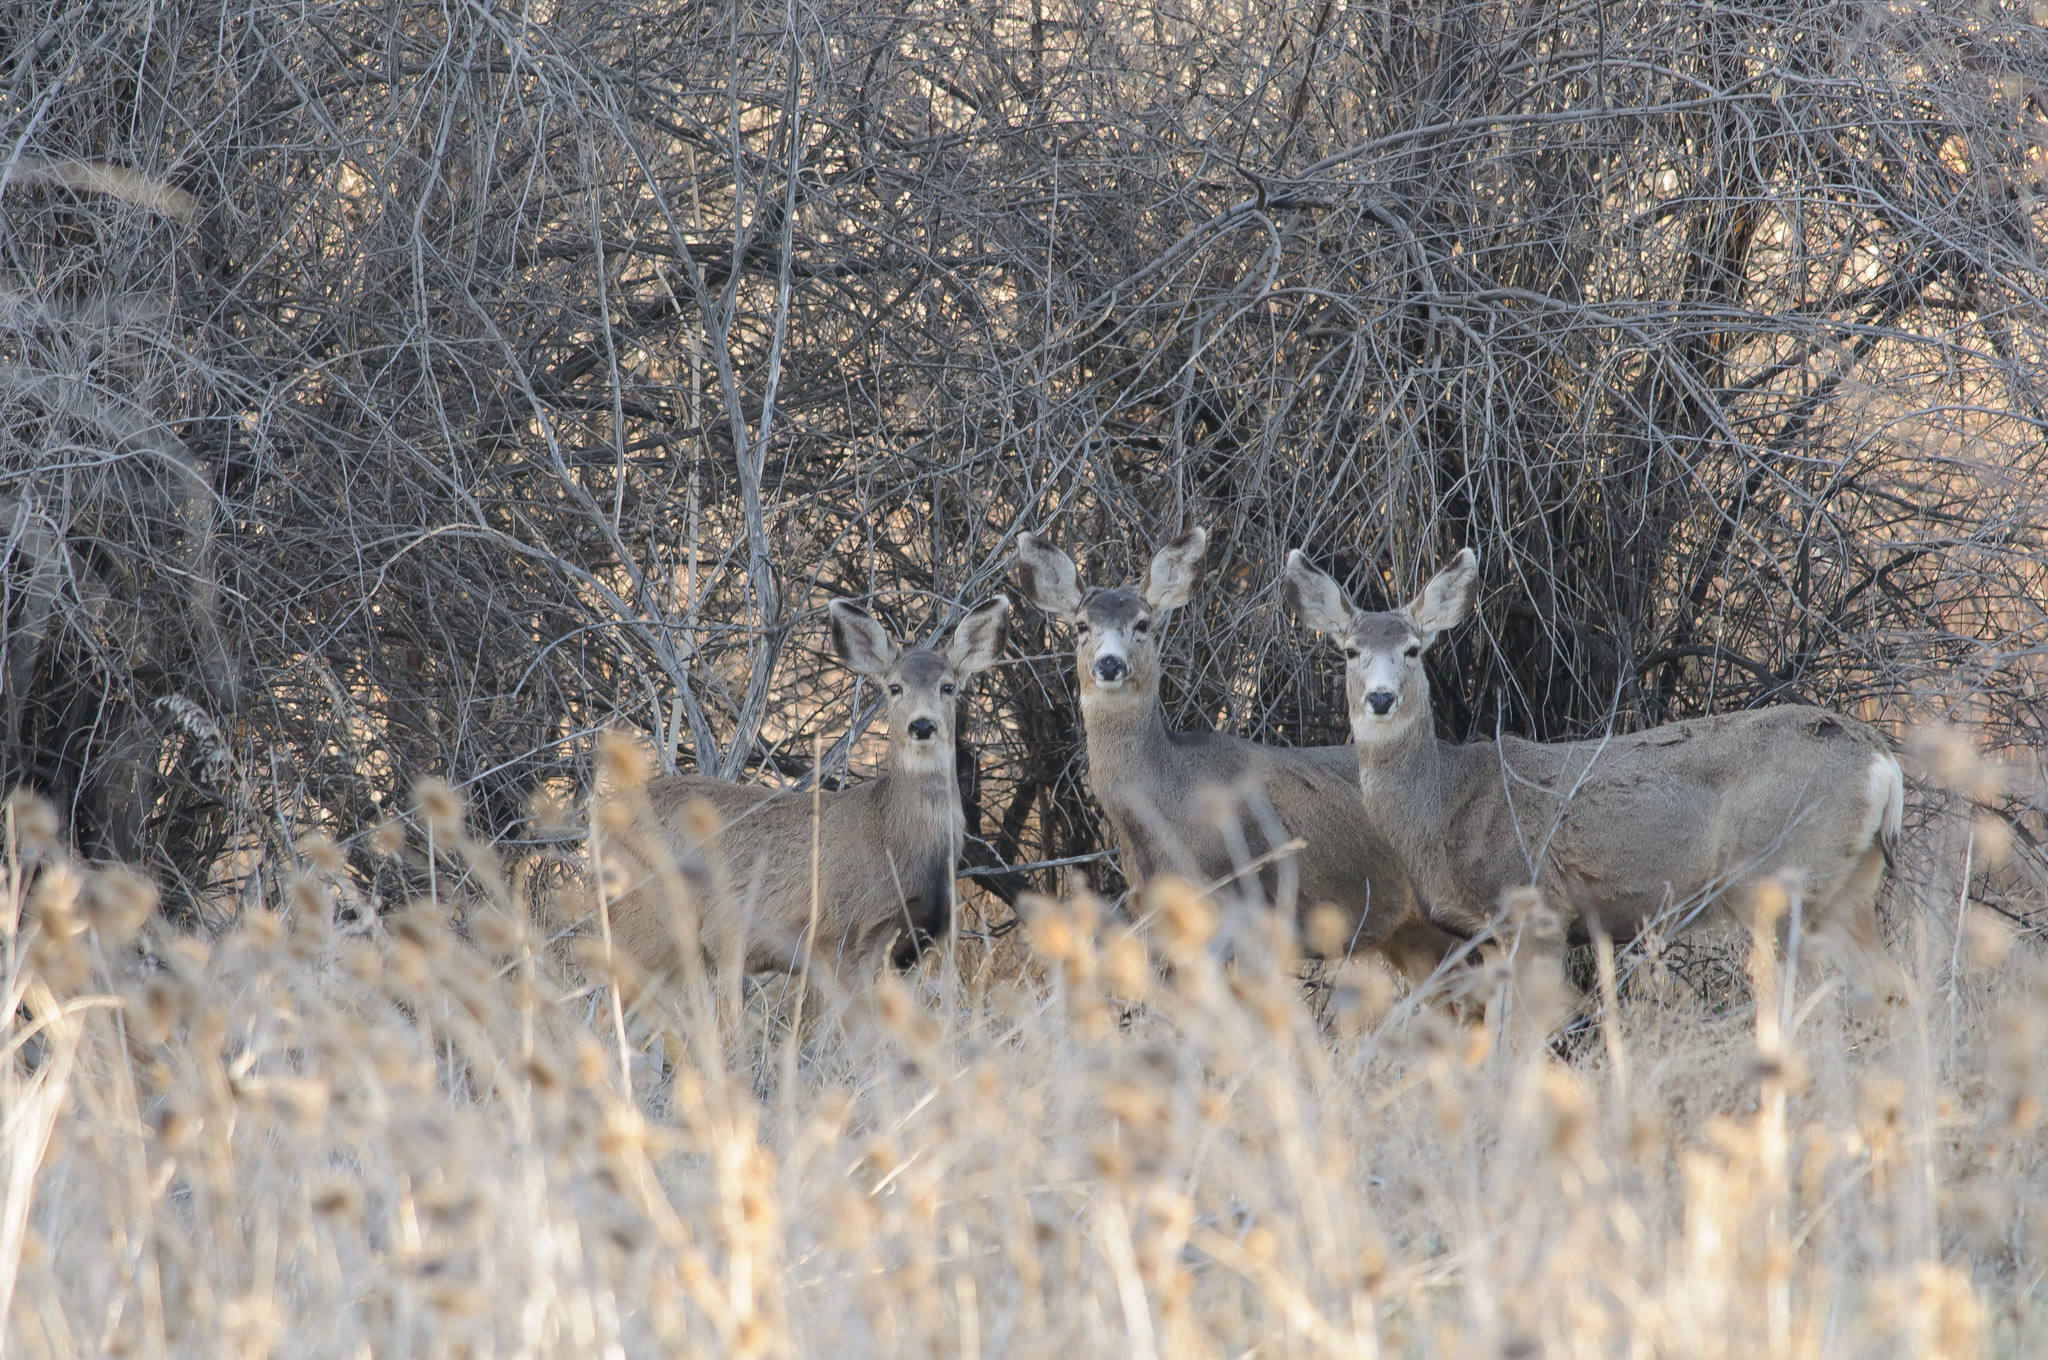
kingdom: Animalia
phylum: Chordata
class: Mammalia
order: Artiodactyla
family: Cervidae
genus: Odocoileus
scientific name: Odocoileus hemionus
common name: Mule deer
